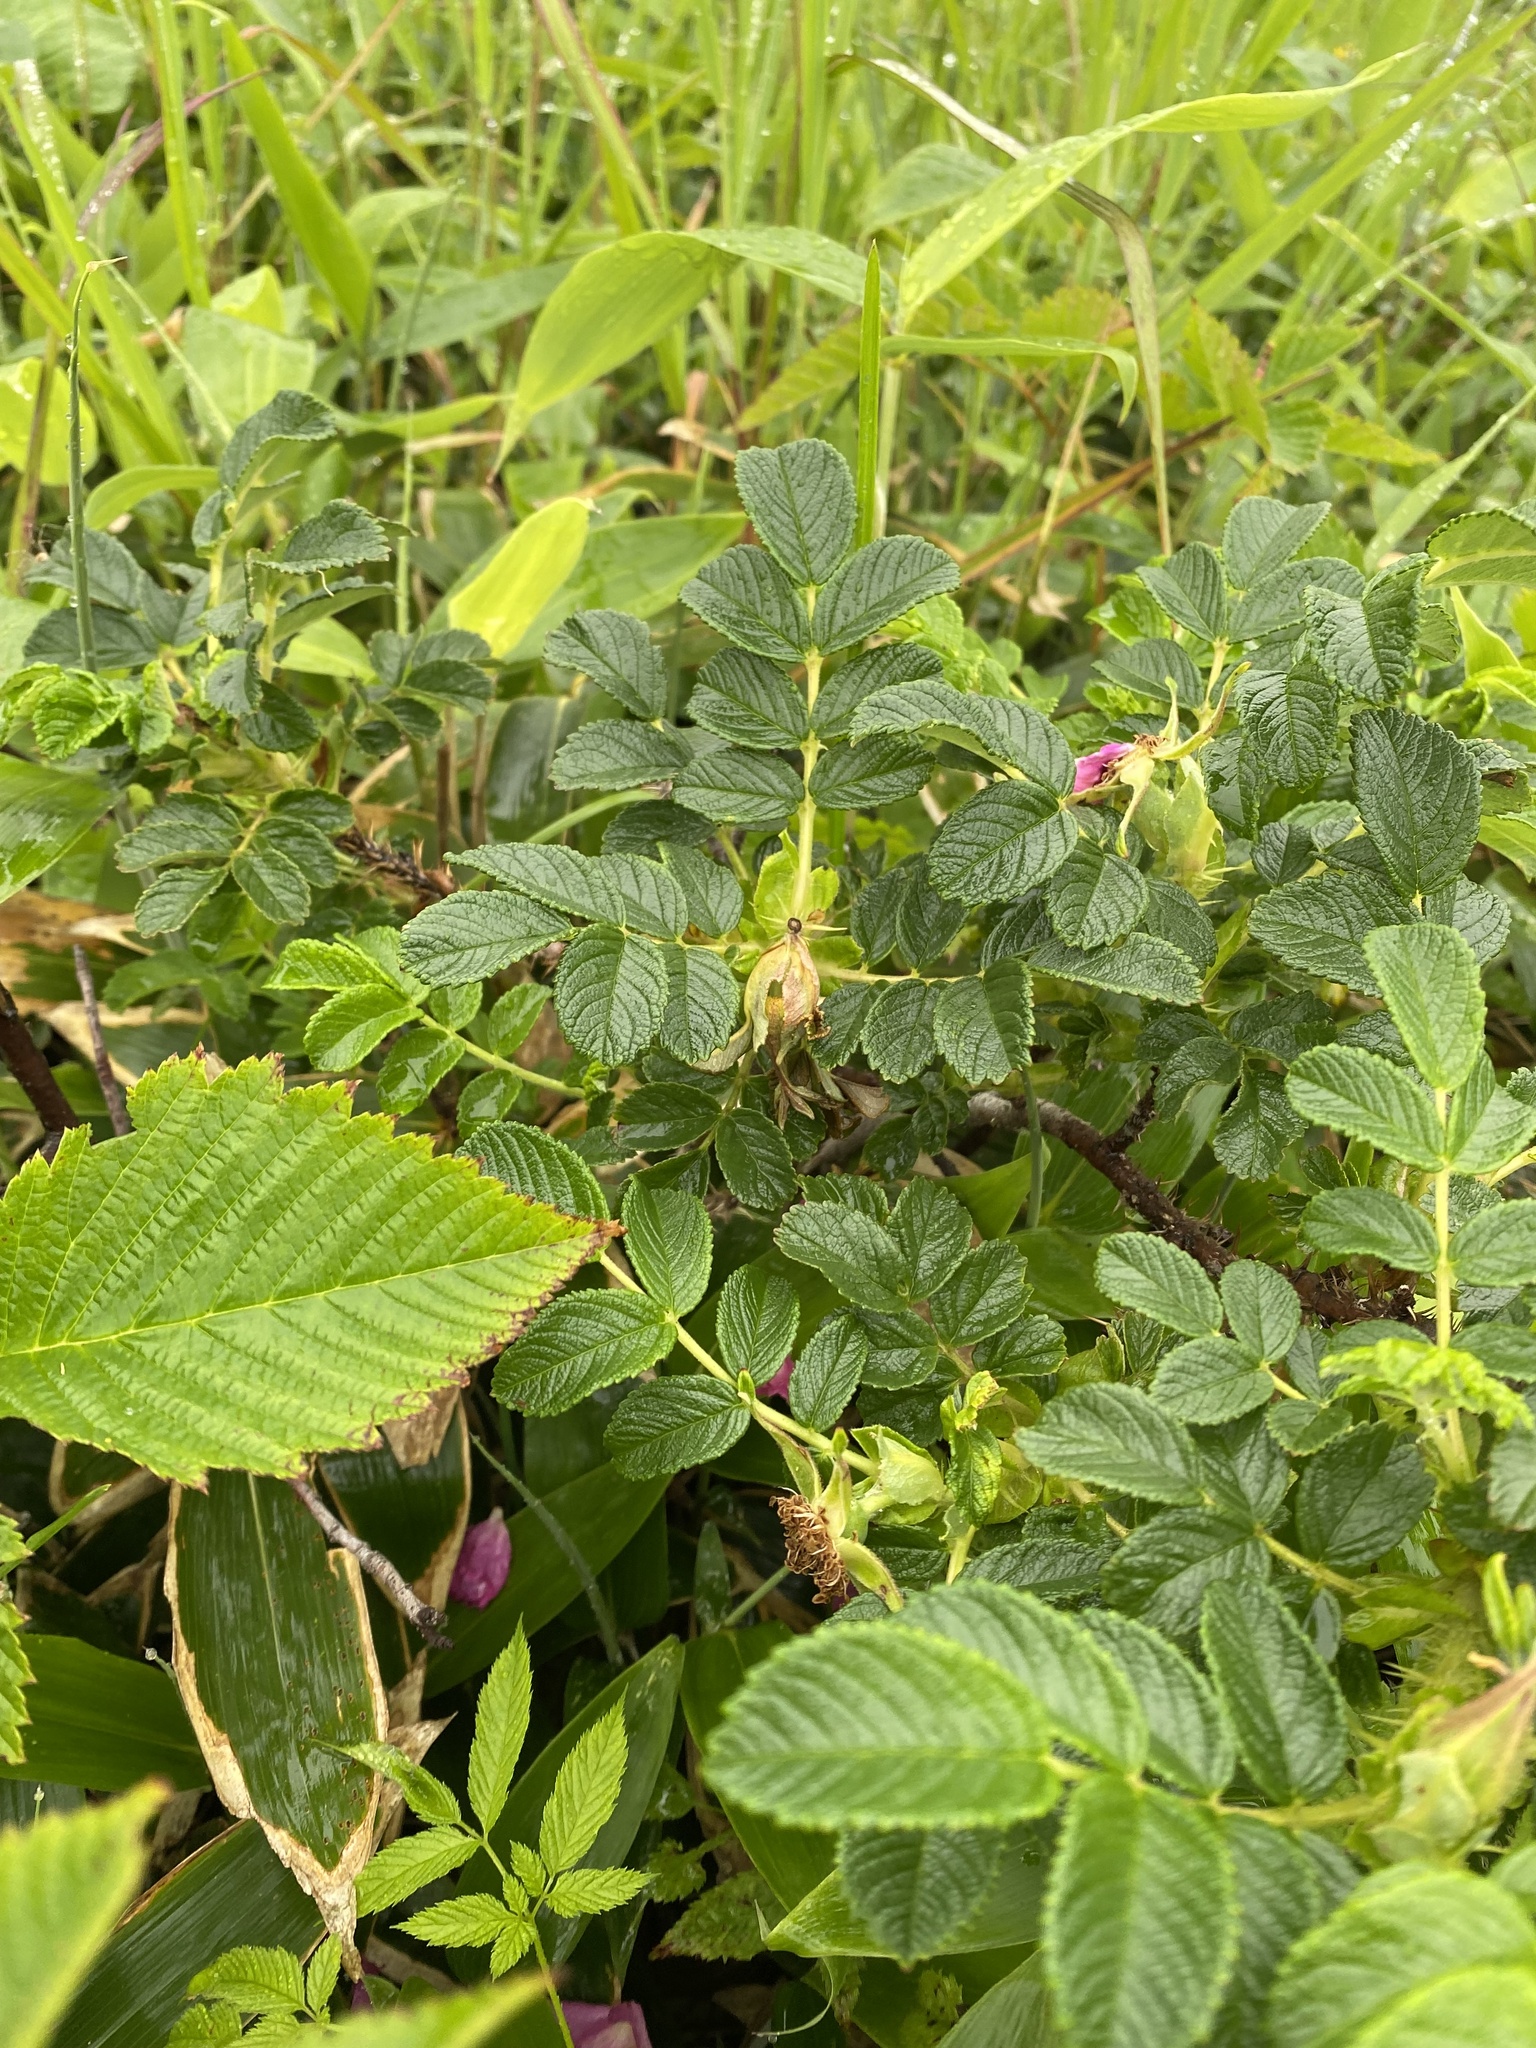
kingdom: Plantae
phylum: Tracheophyta
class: Magnoliopsida
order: Rosales
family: Rosaceae
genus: Rosa
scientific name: Rosa rugosa
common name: Japanese rose
